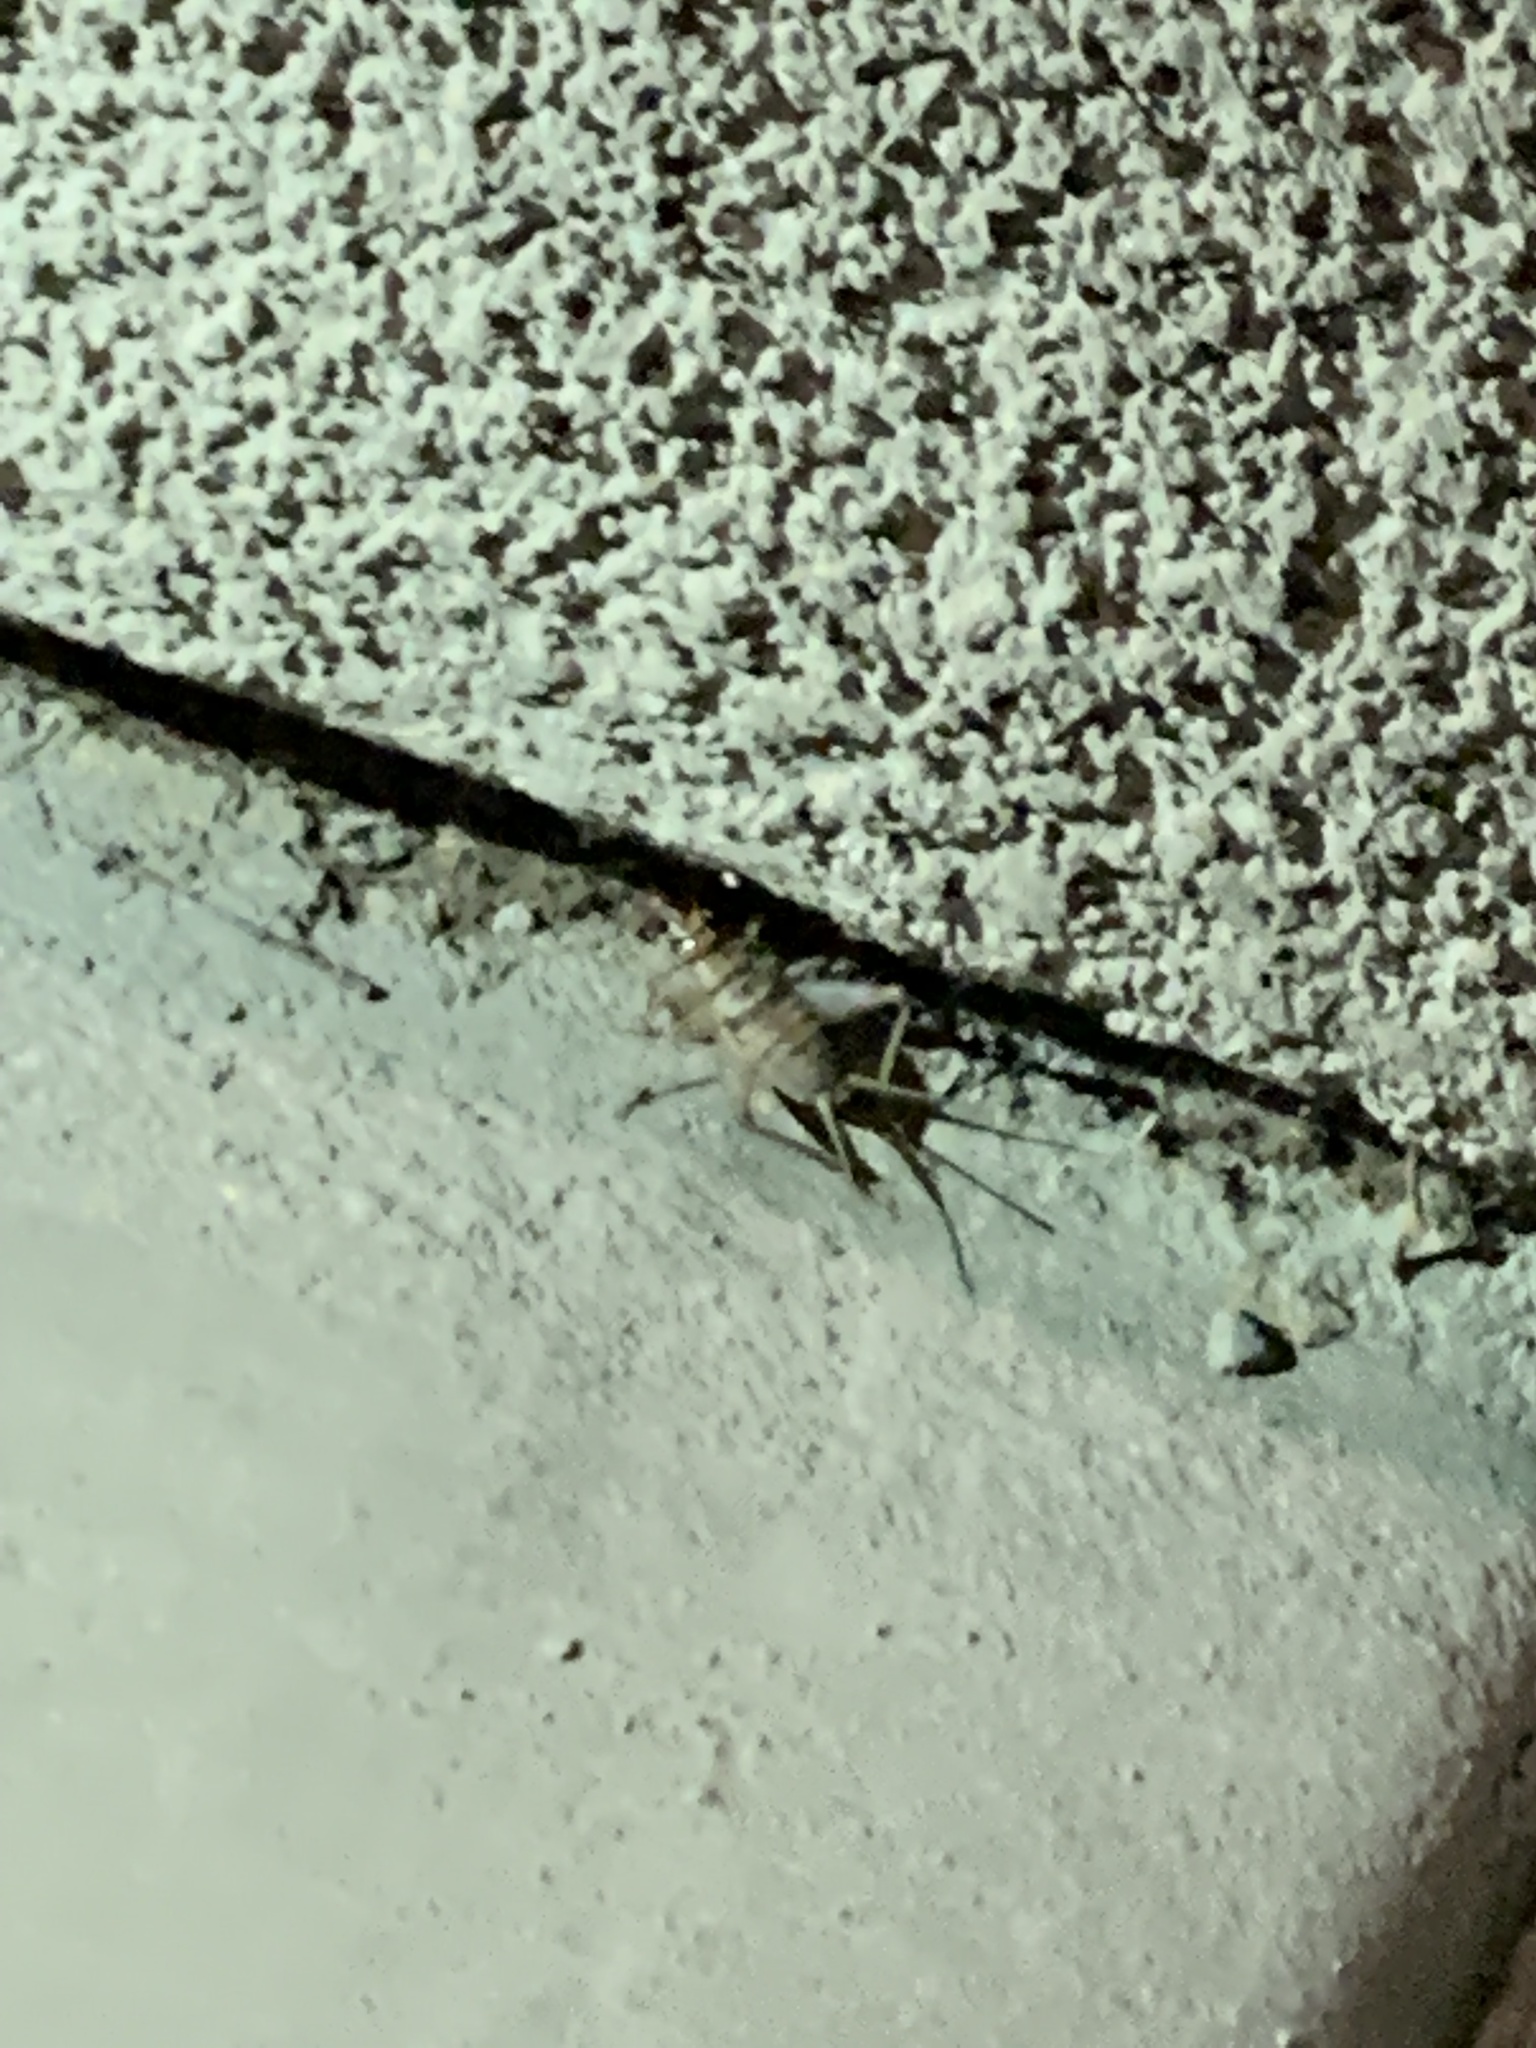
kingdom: Animalia
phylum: Arthropoda
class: Insecta
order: Orthoptera
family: Gryllidae
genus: Gryllodes
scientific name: Gryllodes sigillatus
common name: Tropical house cricket
